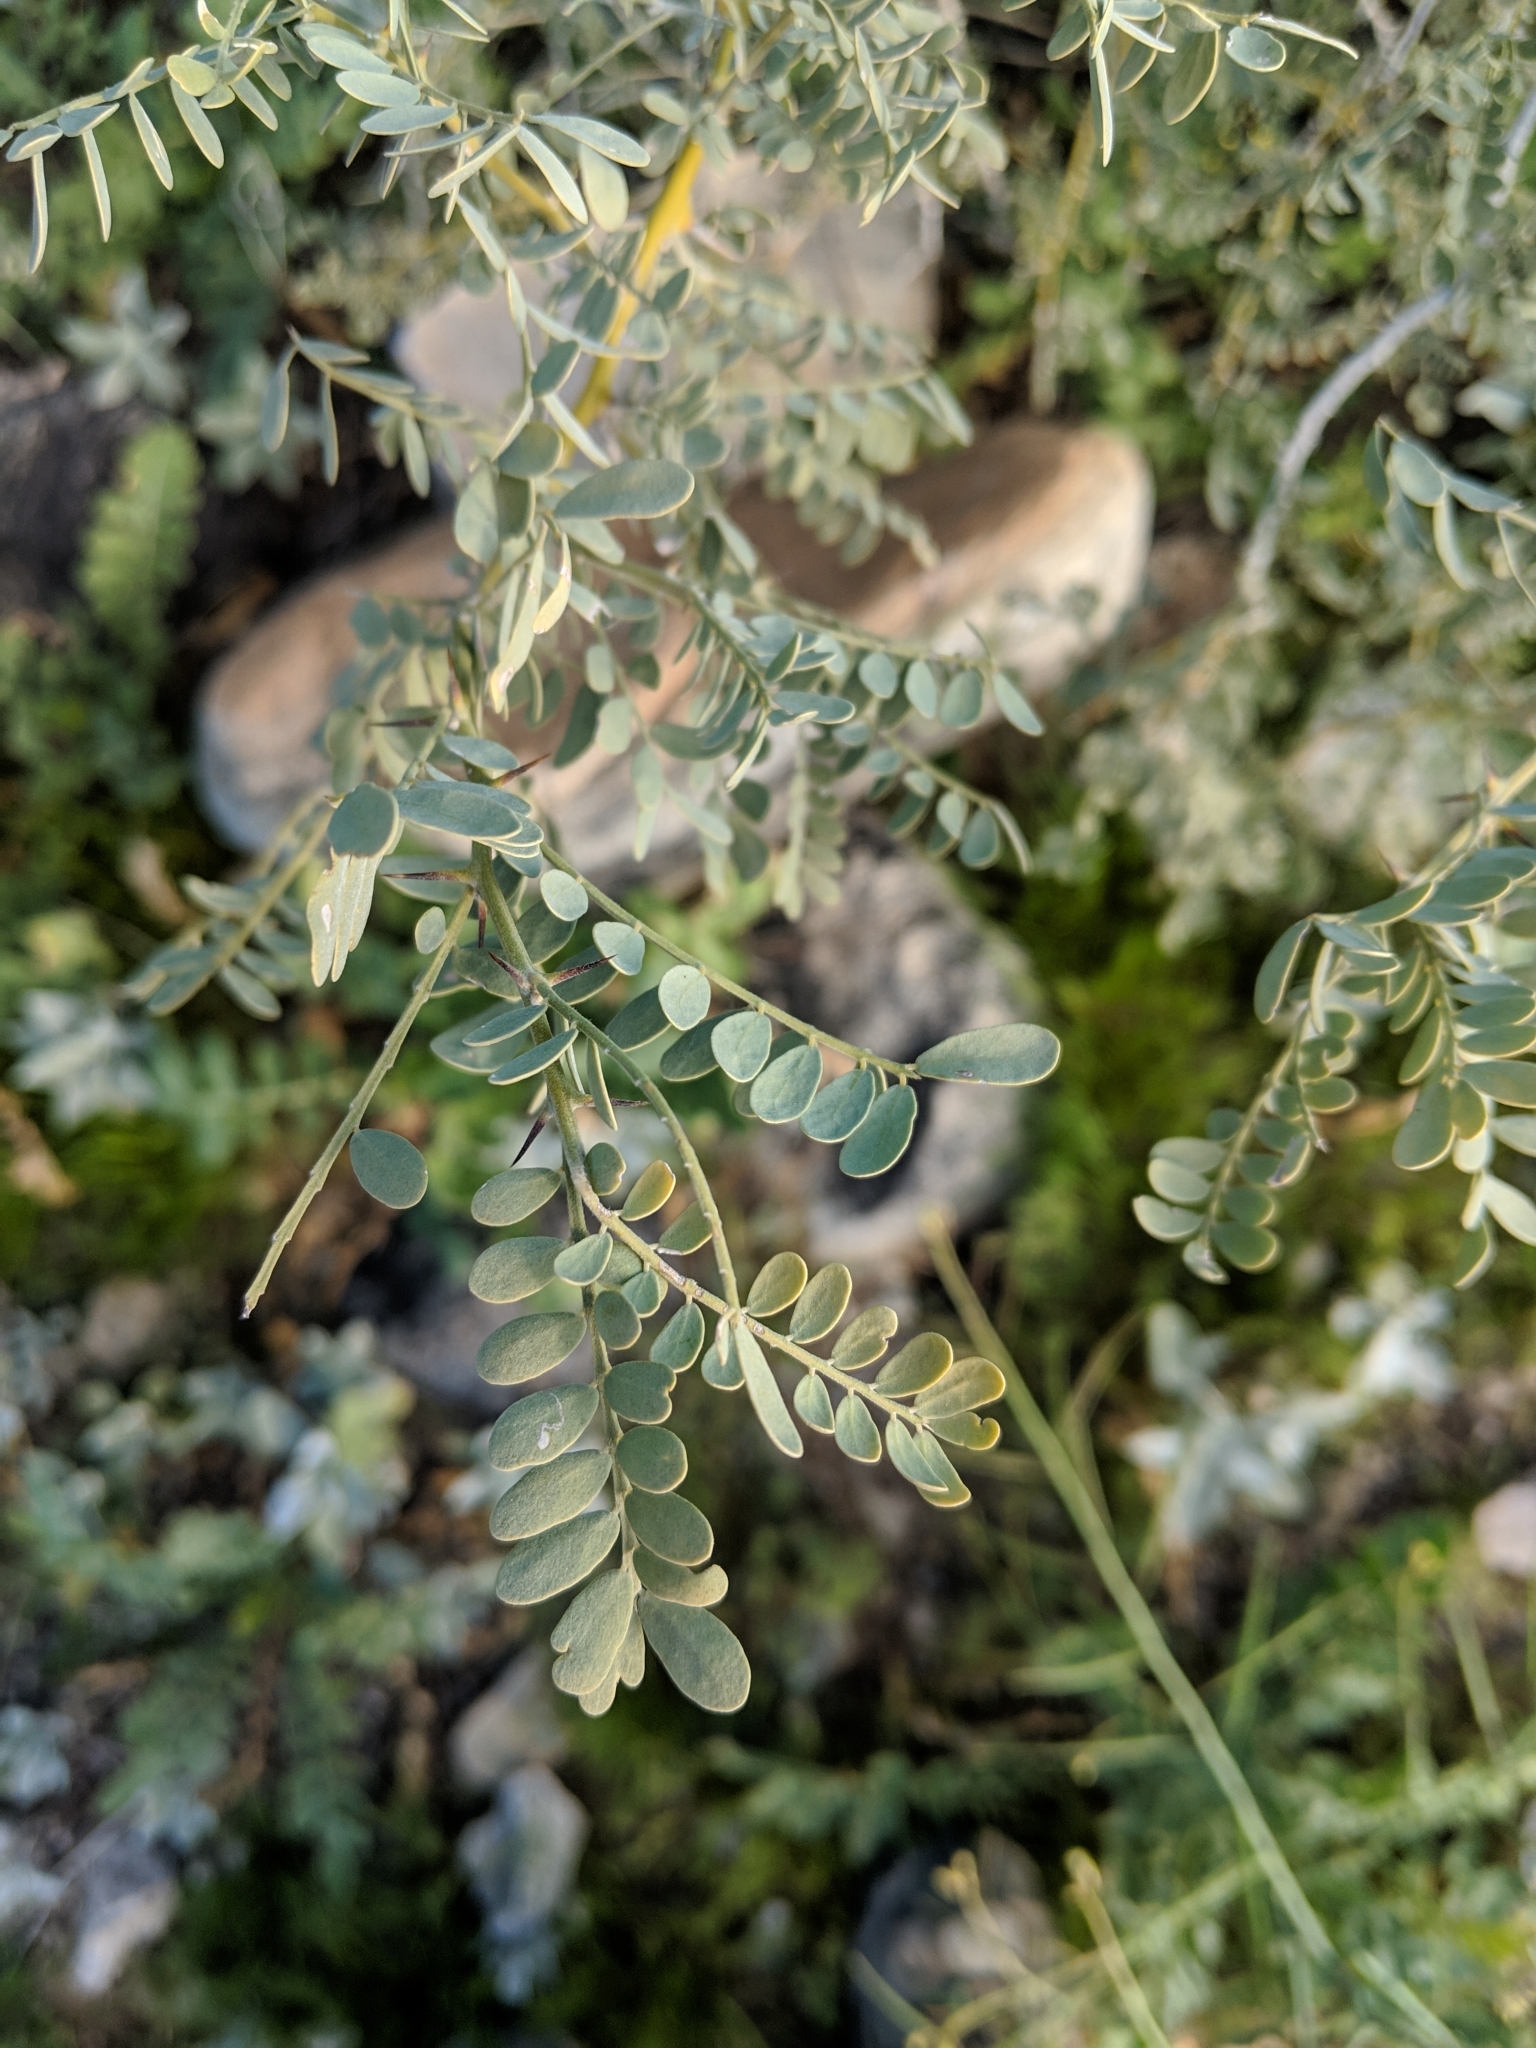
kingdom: Plantae
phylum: Tracheophyta
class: Magnoliopsida
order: Fabales
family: Fabaceae
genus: Olneya
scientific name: Olneya tesota
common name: Desert ironwood
